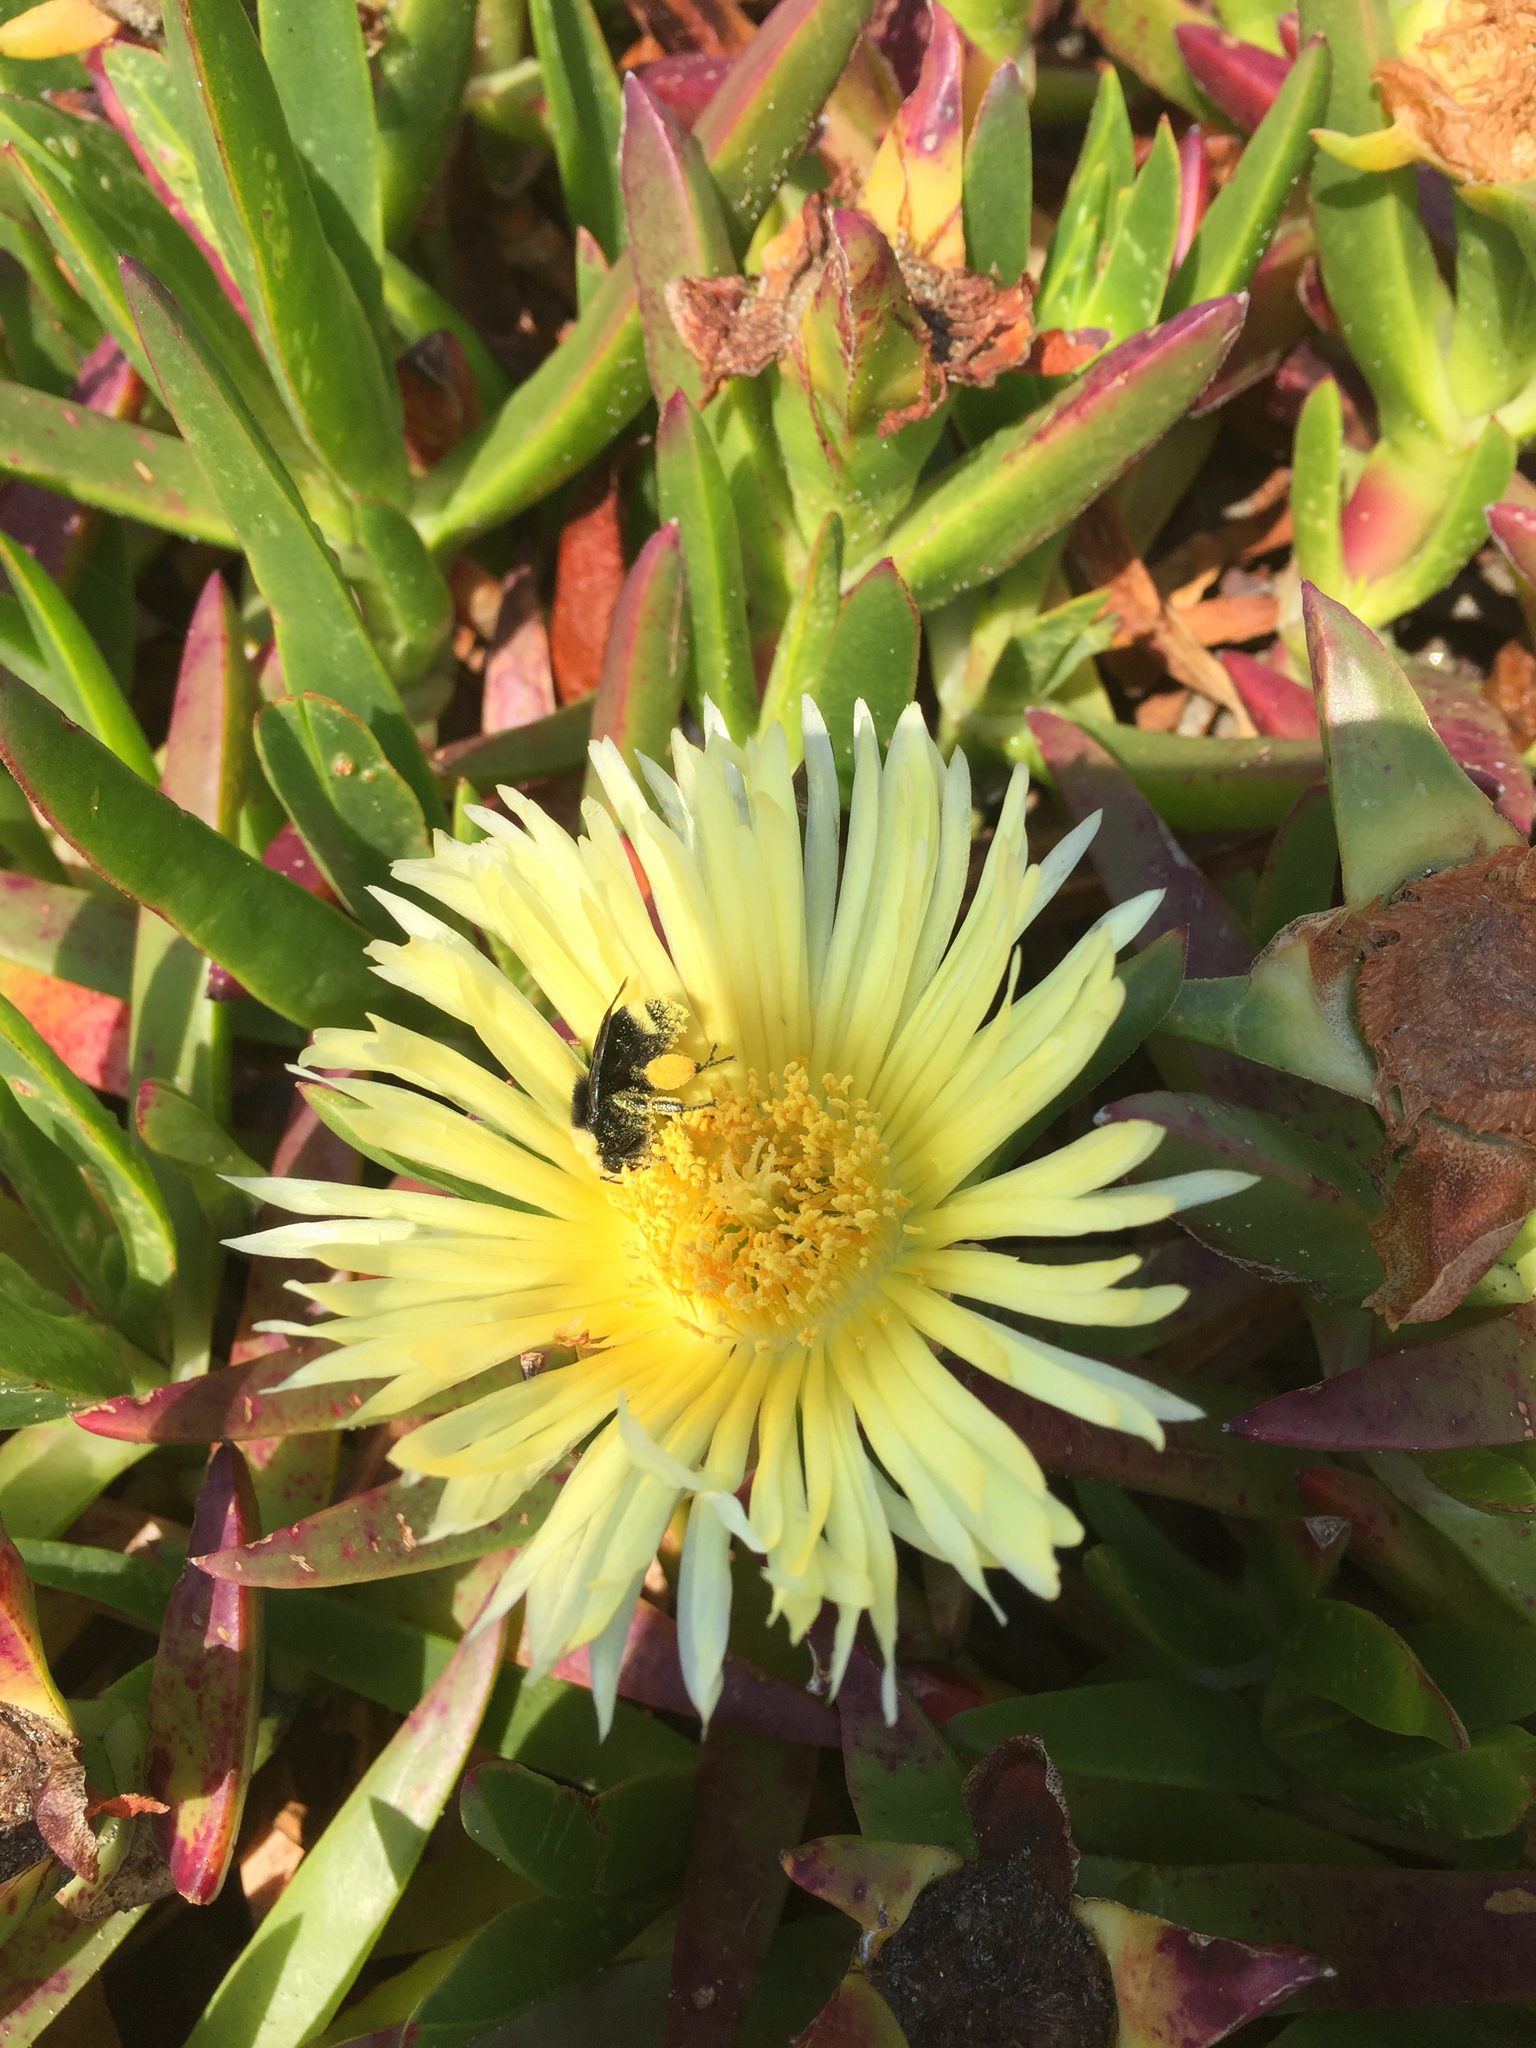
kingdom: Animalia
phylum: Arthropoda
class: Insecta
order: Hymenoptera
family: Apidae
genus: Pyrobombus
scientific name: Pyrobombus
